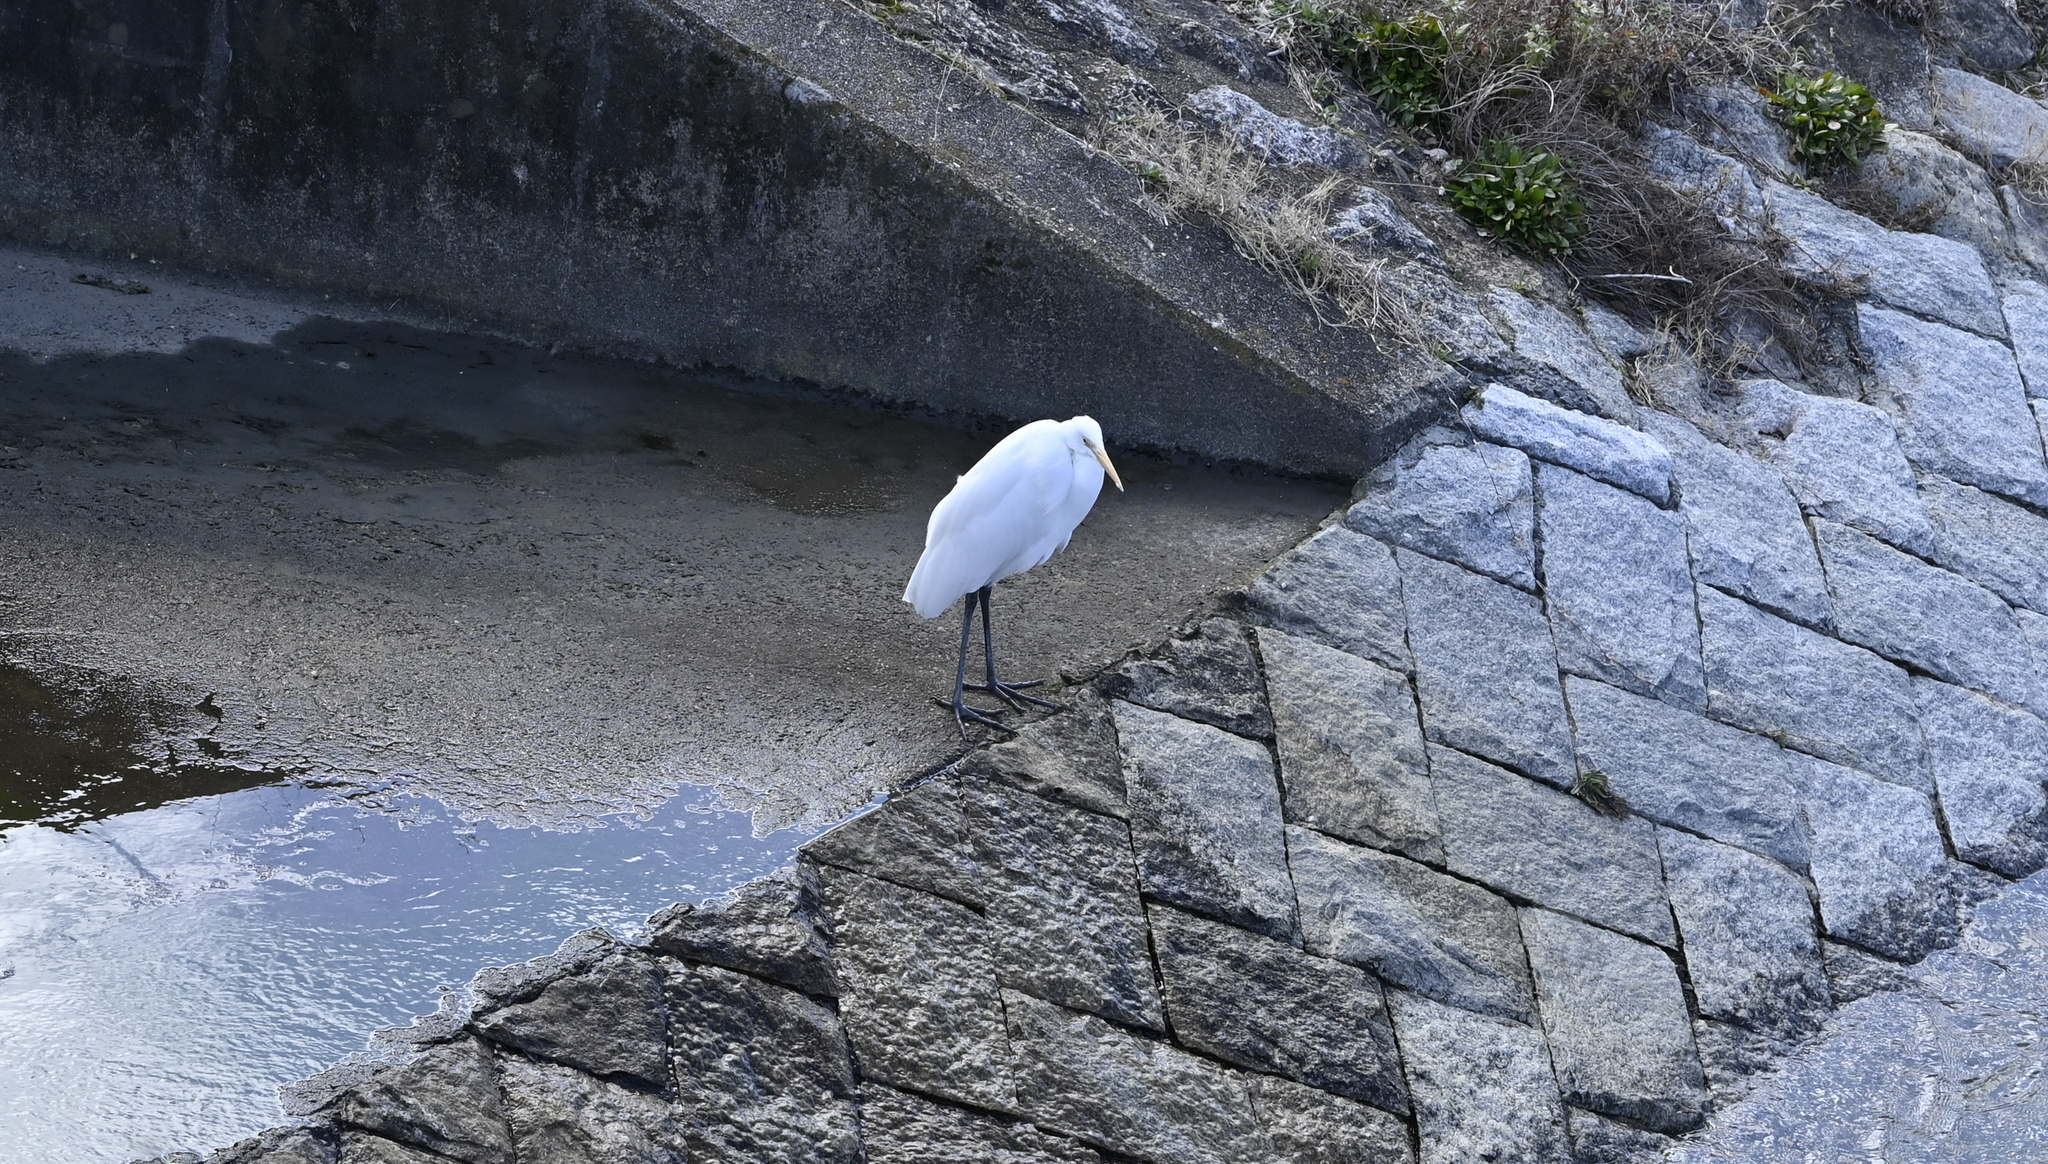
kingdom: Animalia
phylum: Chordata
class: Aves
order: Pelecaniformes
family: Ardeidae
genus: Ardea
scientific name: Ardea alba
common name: Great egret
